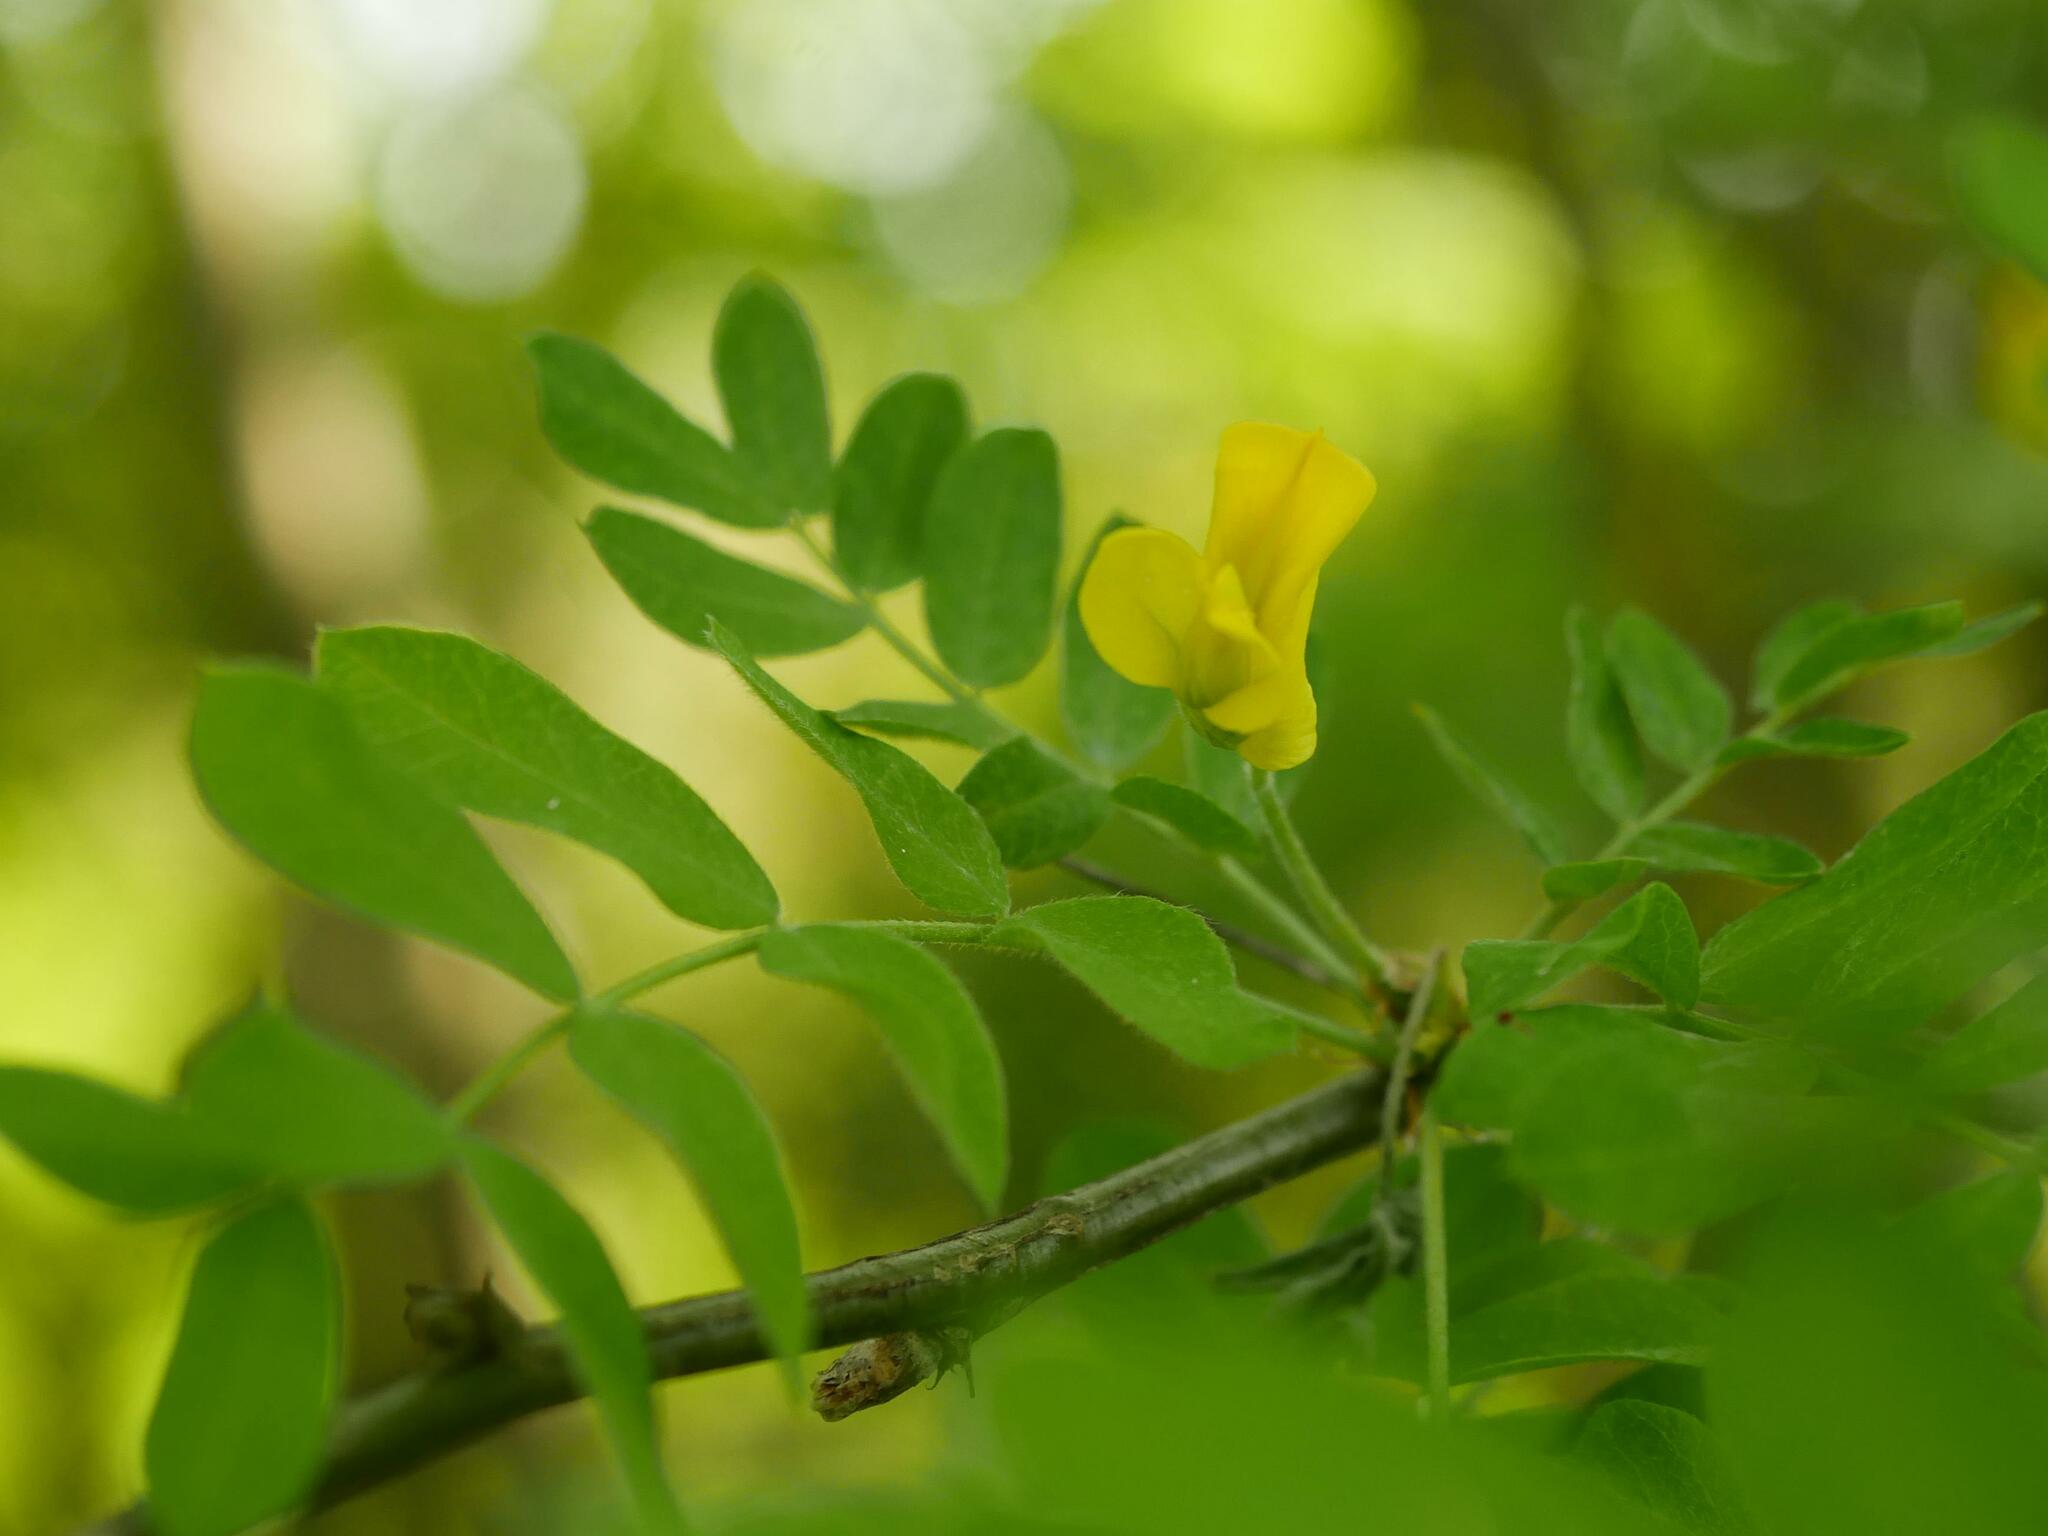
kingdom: Plantae
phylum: Tracheophyta
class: Magnoliopsida
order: Fabales
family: Fabaceae
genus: Caragana
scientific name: Caragana arborescens
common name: Siberian peashrub
